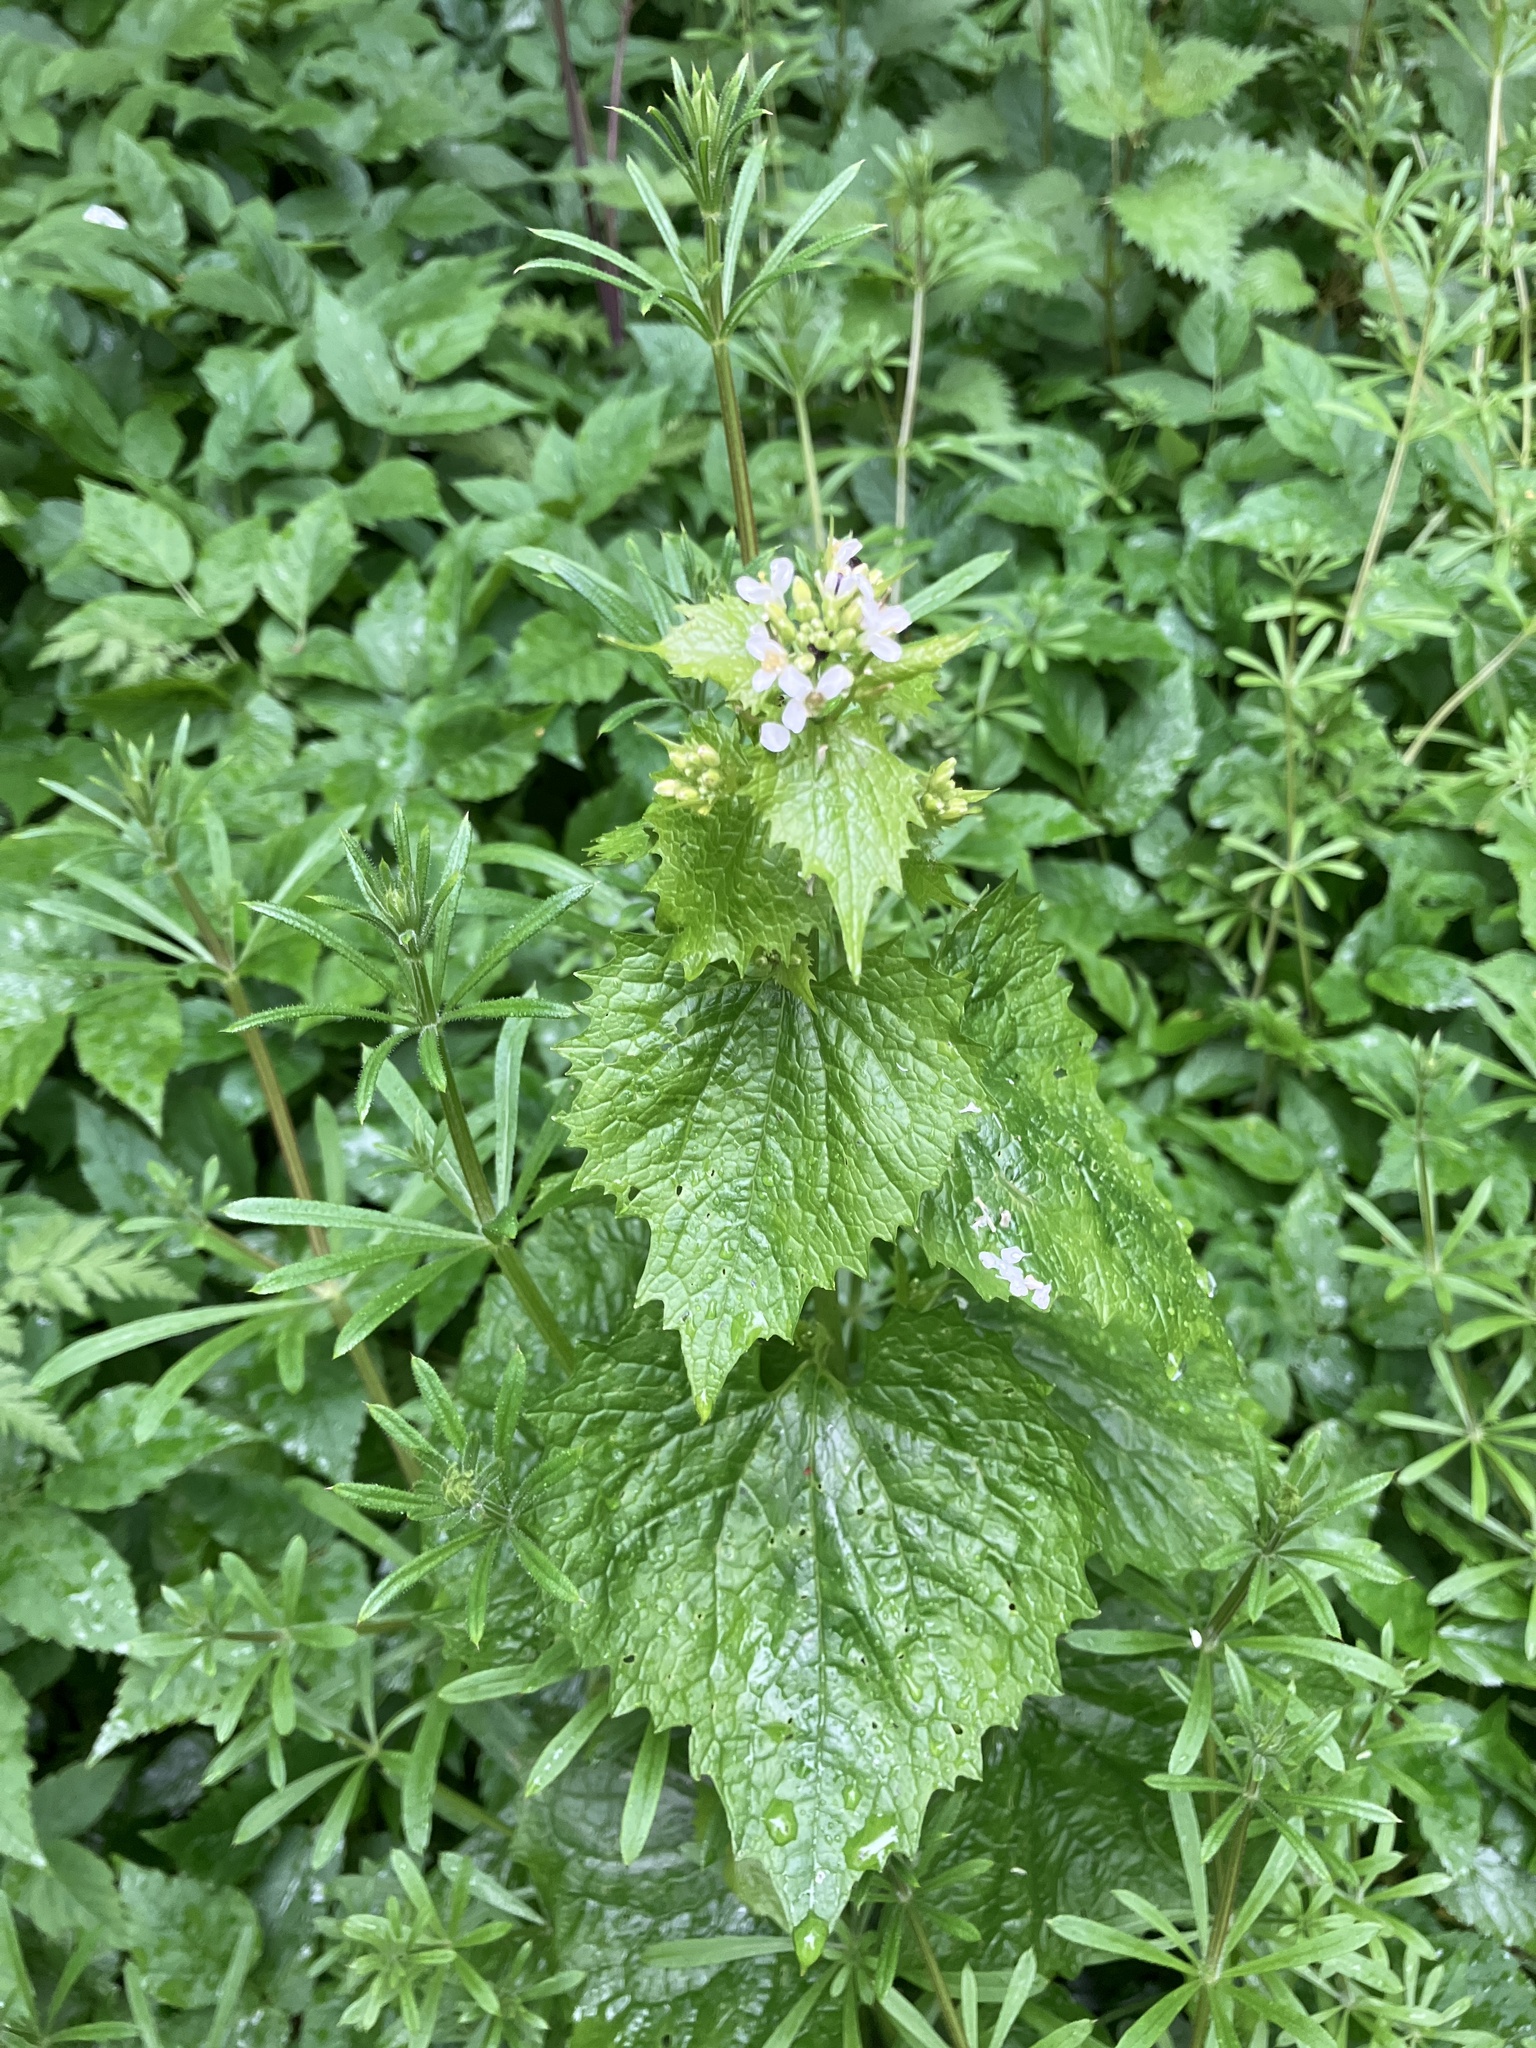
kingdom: Plantae
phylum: Tracheophyta
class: Magnoliopsida
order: Brassicales
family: Brassicaceae
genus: Alliaria
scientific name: Alliaria petiolata
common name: Garlic mustard
